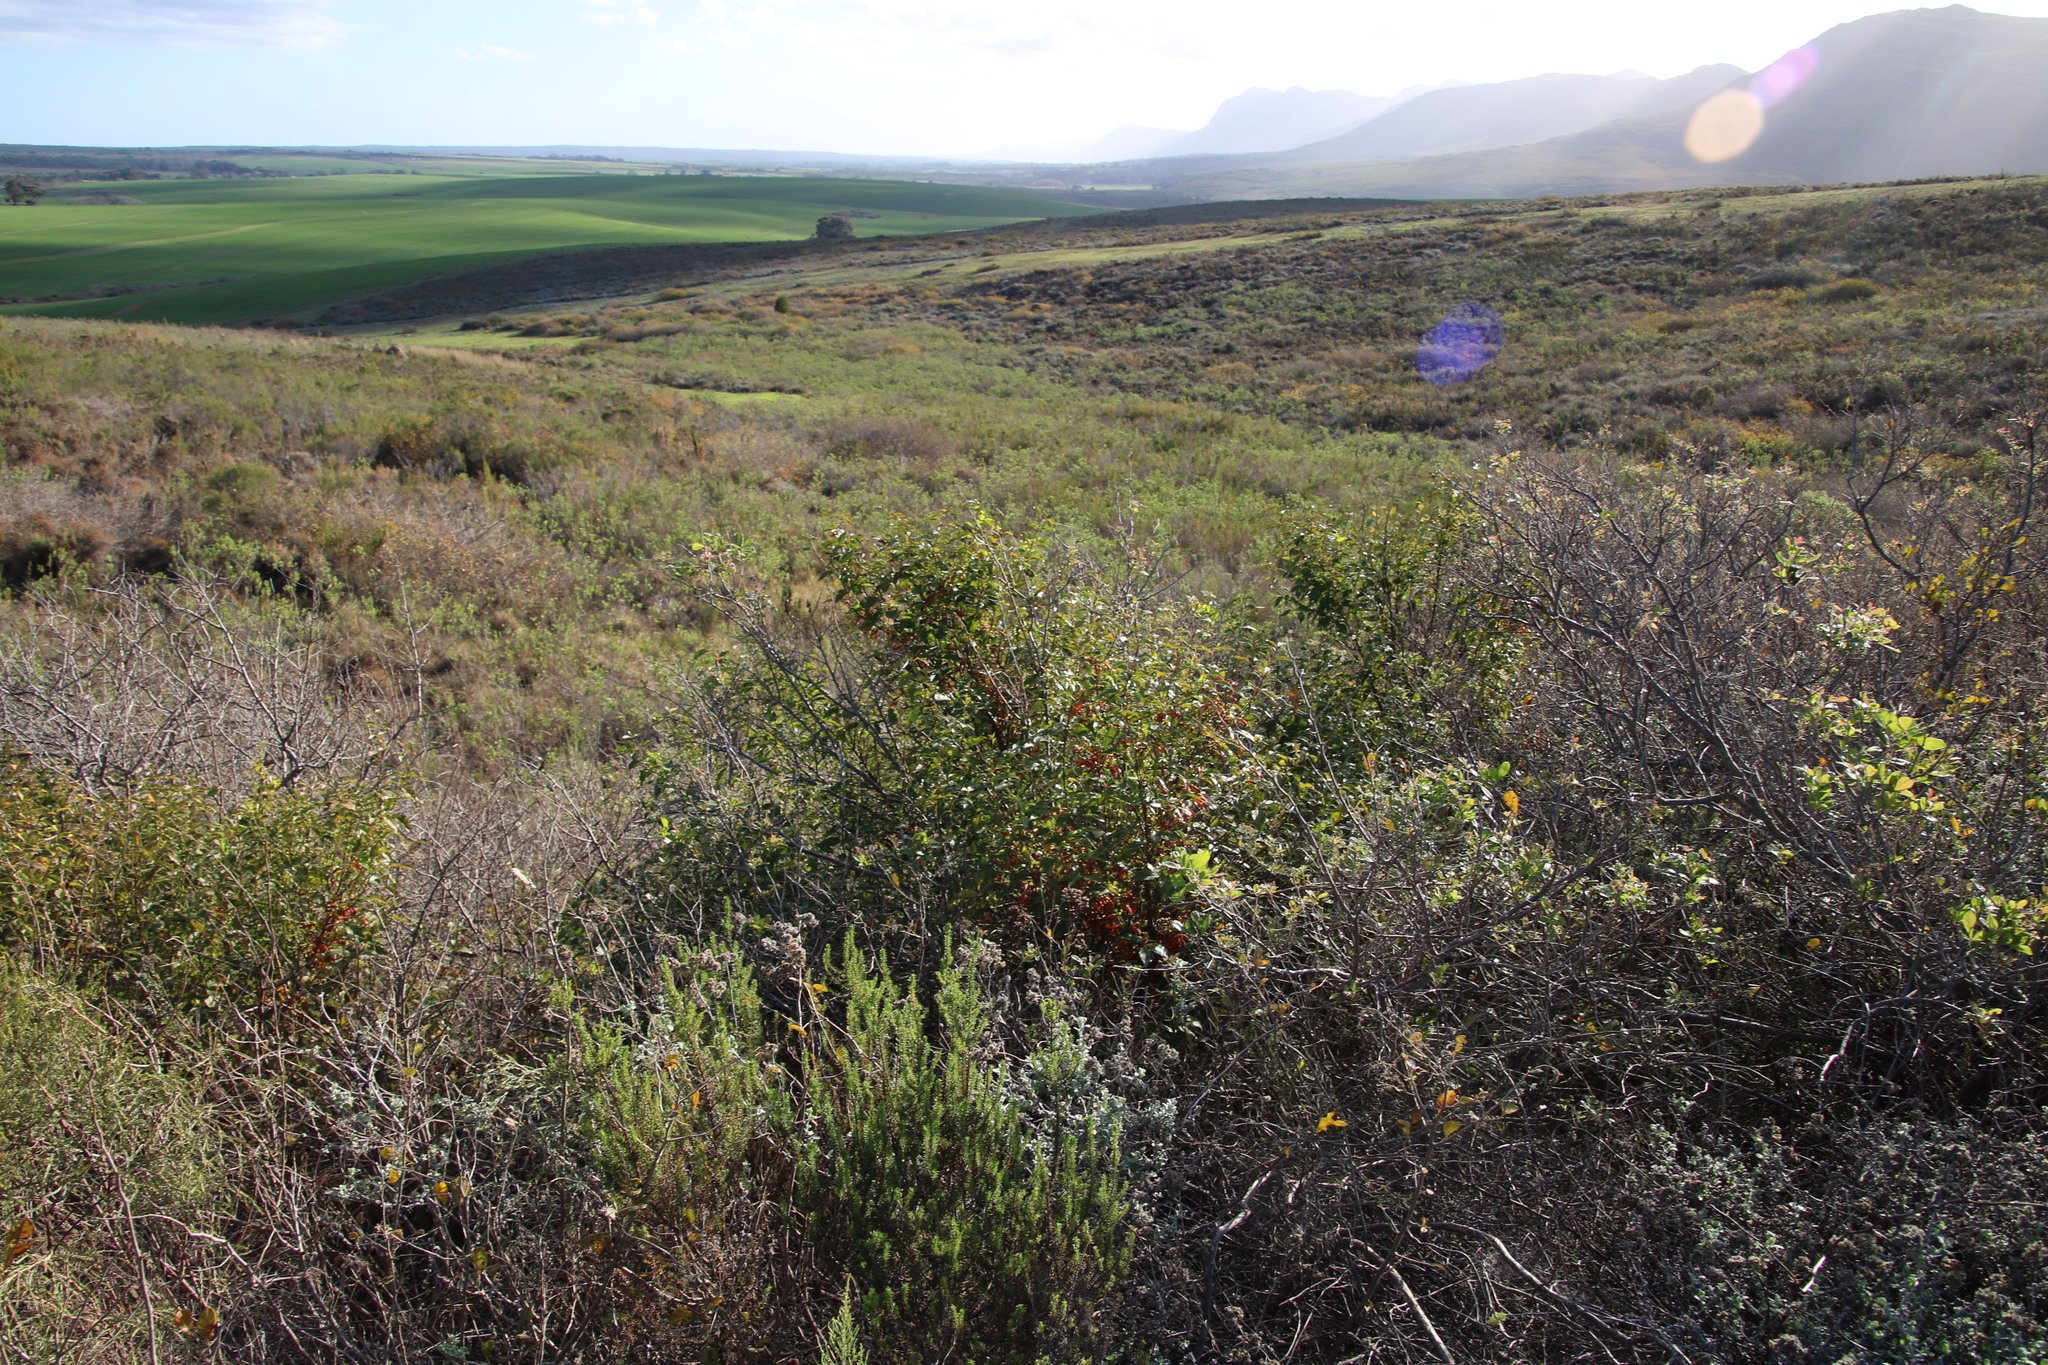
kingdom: Plantae
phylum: Tracheophyta
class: Magnoliopsida
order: Lamiales
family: Stilbaceae
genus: Halleria
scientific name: Halleria lucida
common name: Tree fuschia
